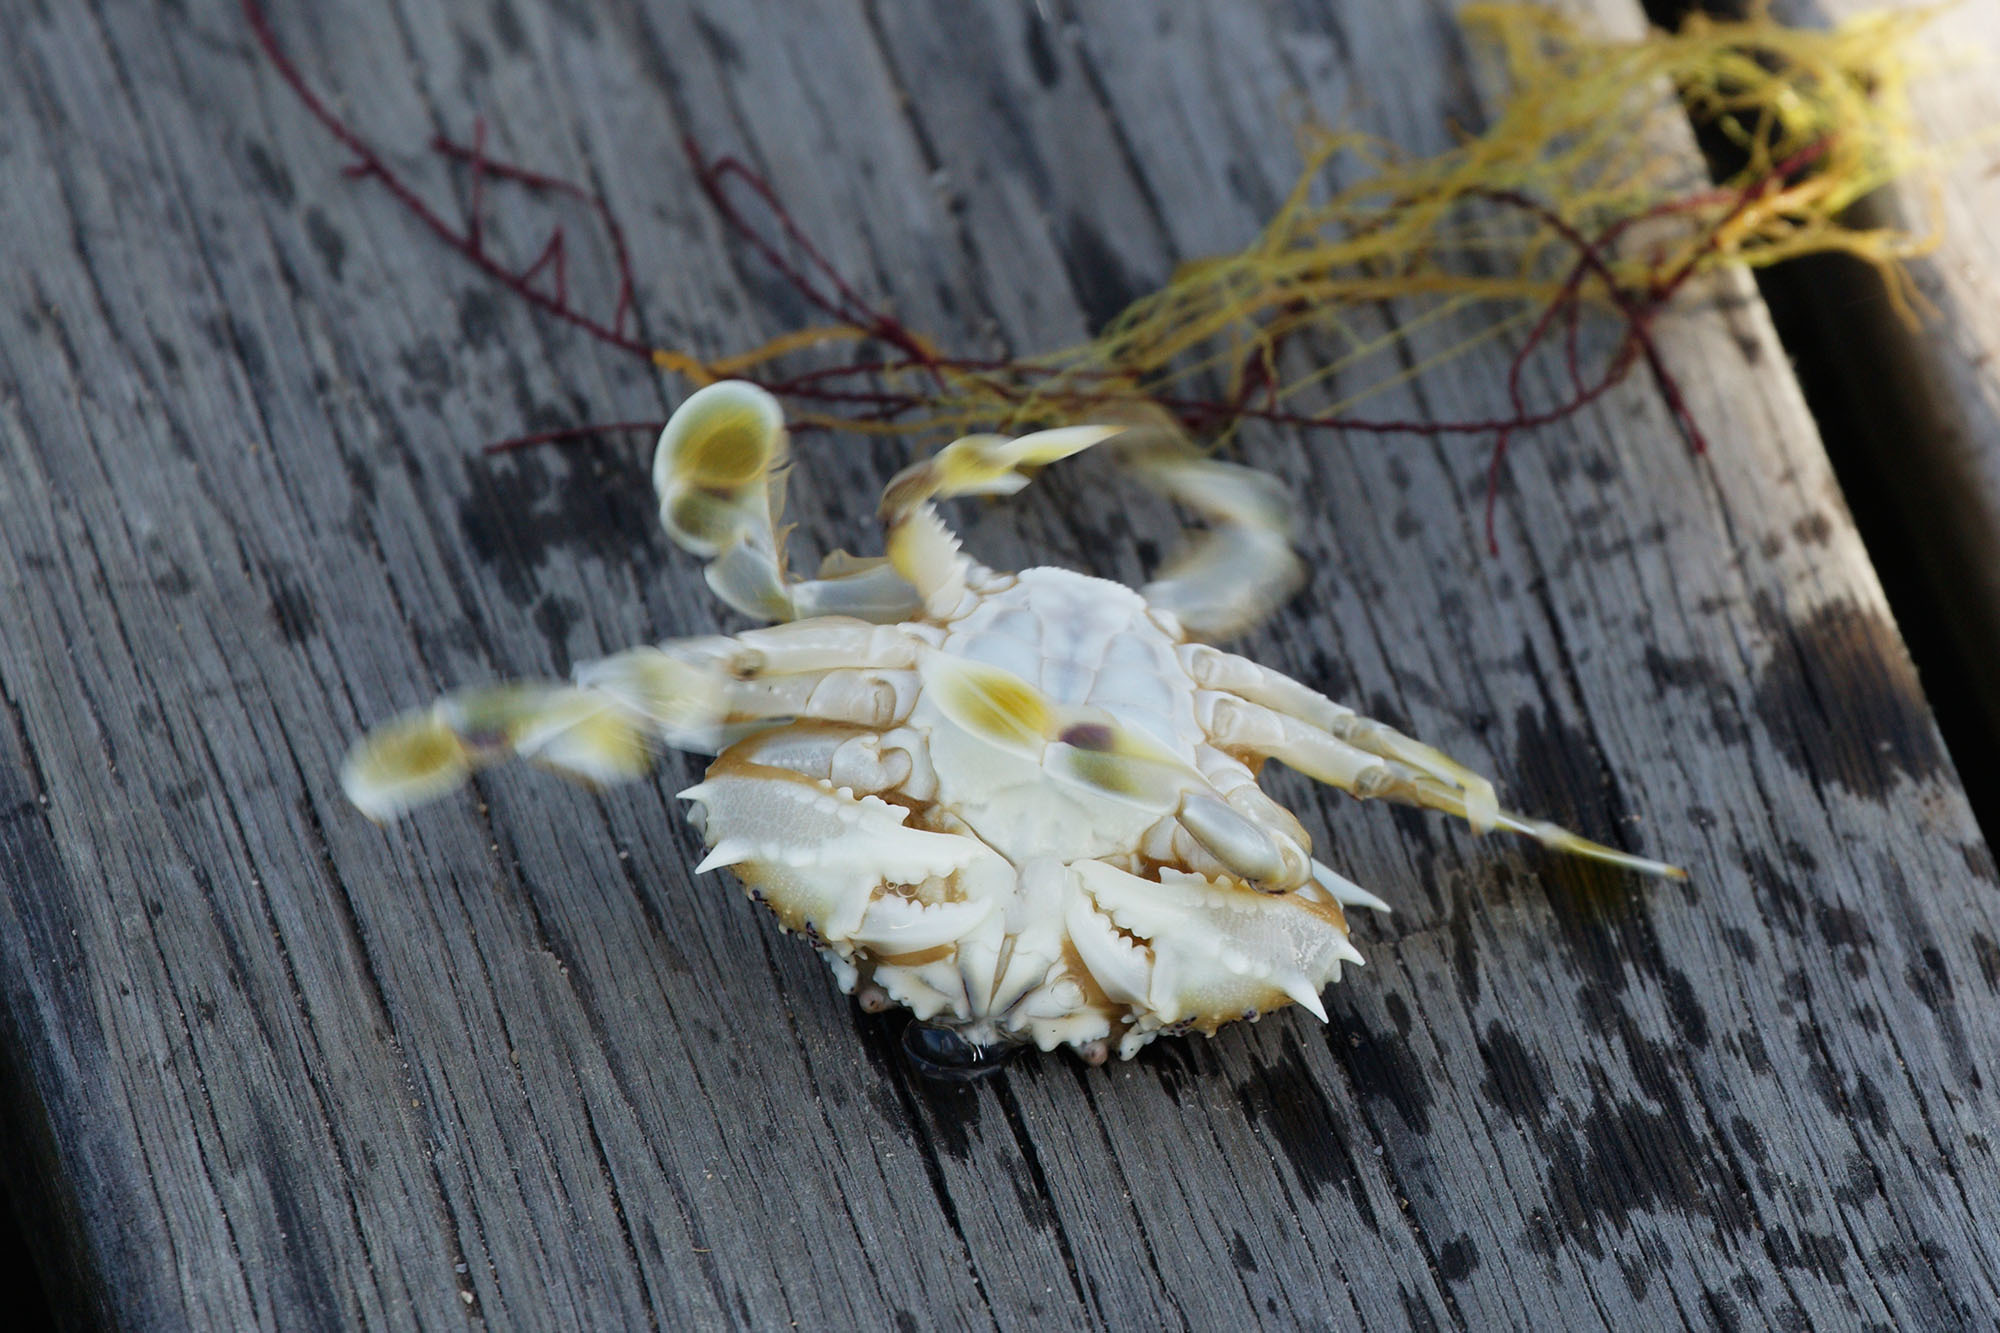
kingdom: Animalia
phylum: Arthropoda
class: Malacostraca
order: Decapoda
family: Matutidae
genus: Matuta
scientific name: Matuta victor
